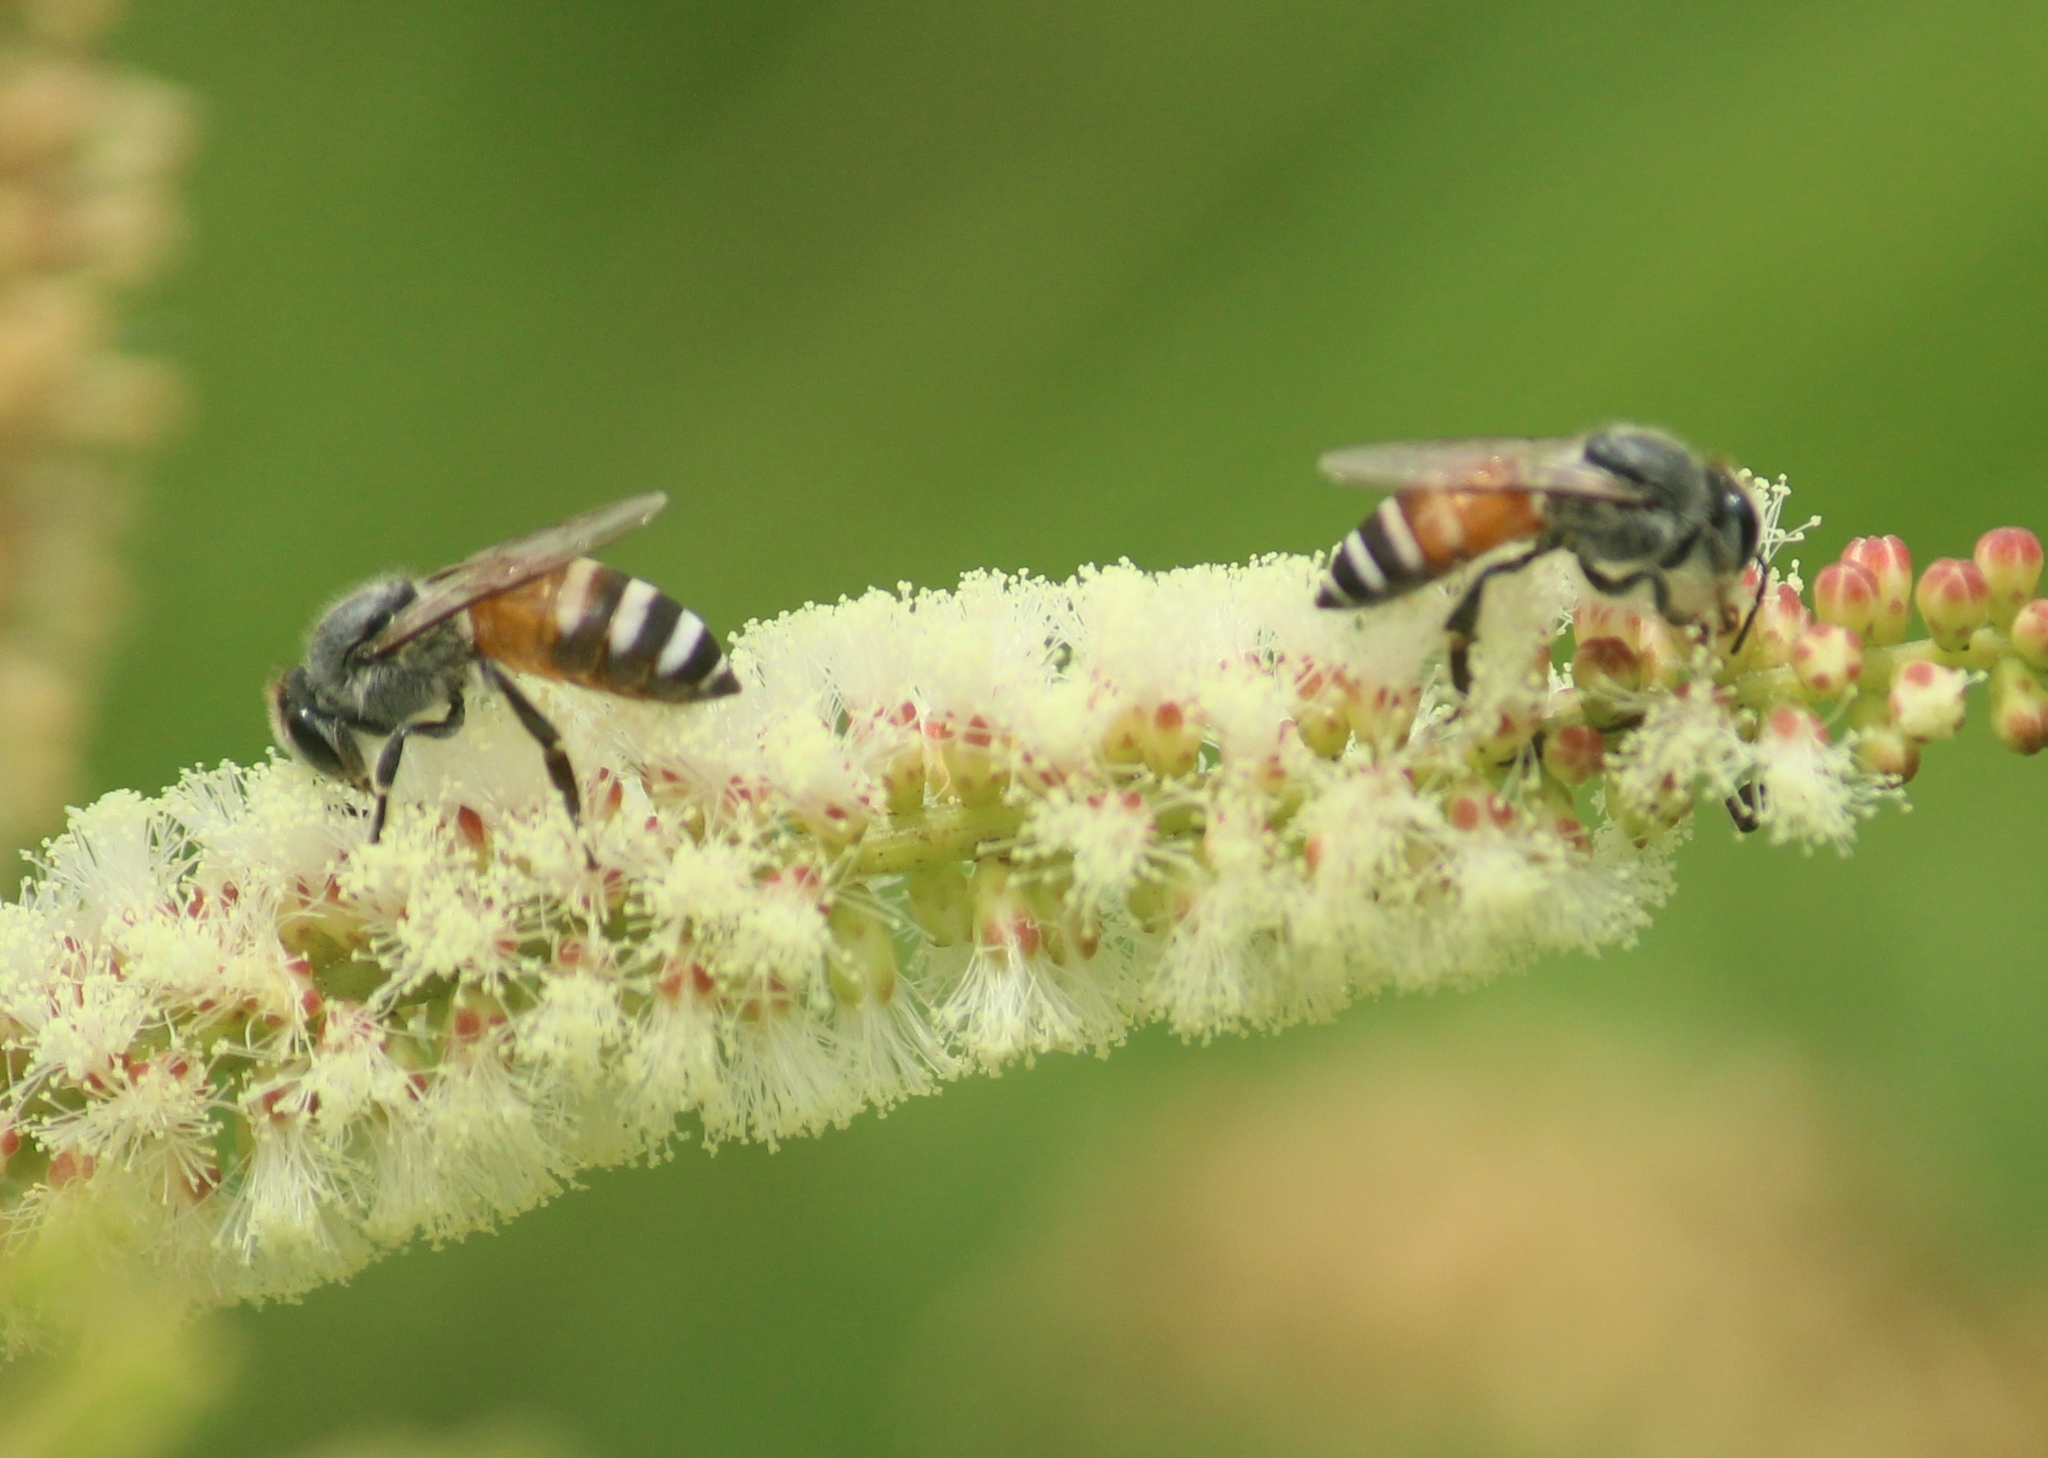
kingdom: Animalia
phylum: Arthropoda
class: Insecta
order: Hymenoptera
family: Apidae
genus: Apis
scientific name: Apis florea
